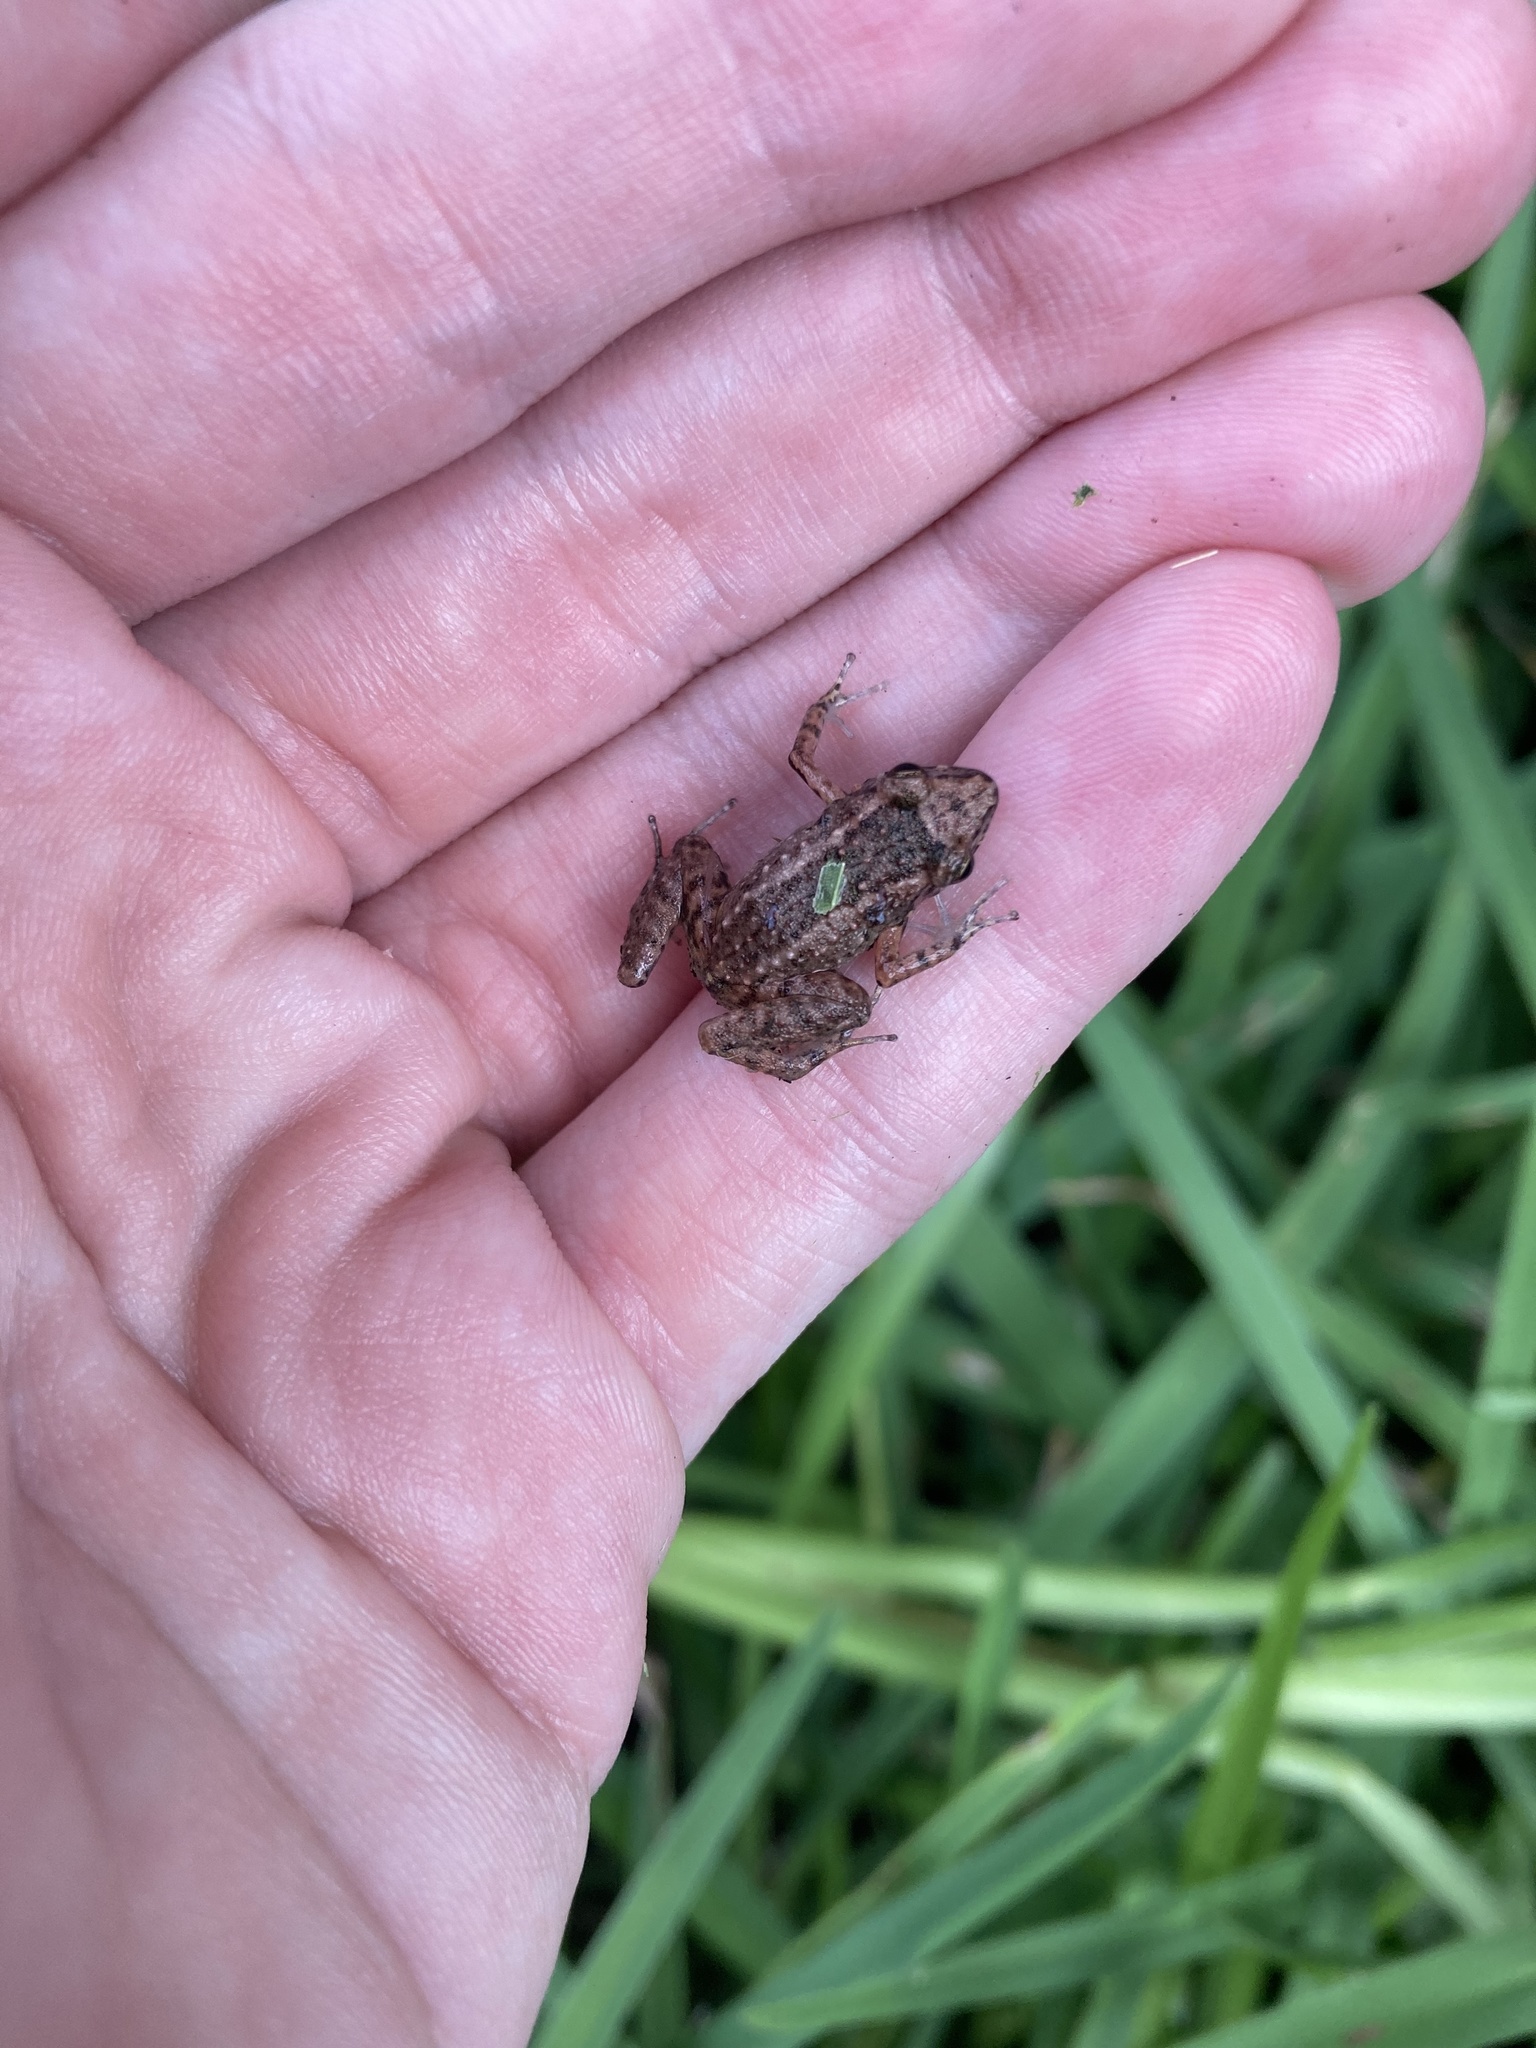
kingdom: Animalia
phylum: Chordata
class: Amphibia
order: Anura
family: Eleutherodactylidae
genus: Eleutherodactylus
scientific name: Eleutherodactylus planirostris
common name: Greenhouse frog
